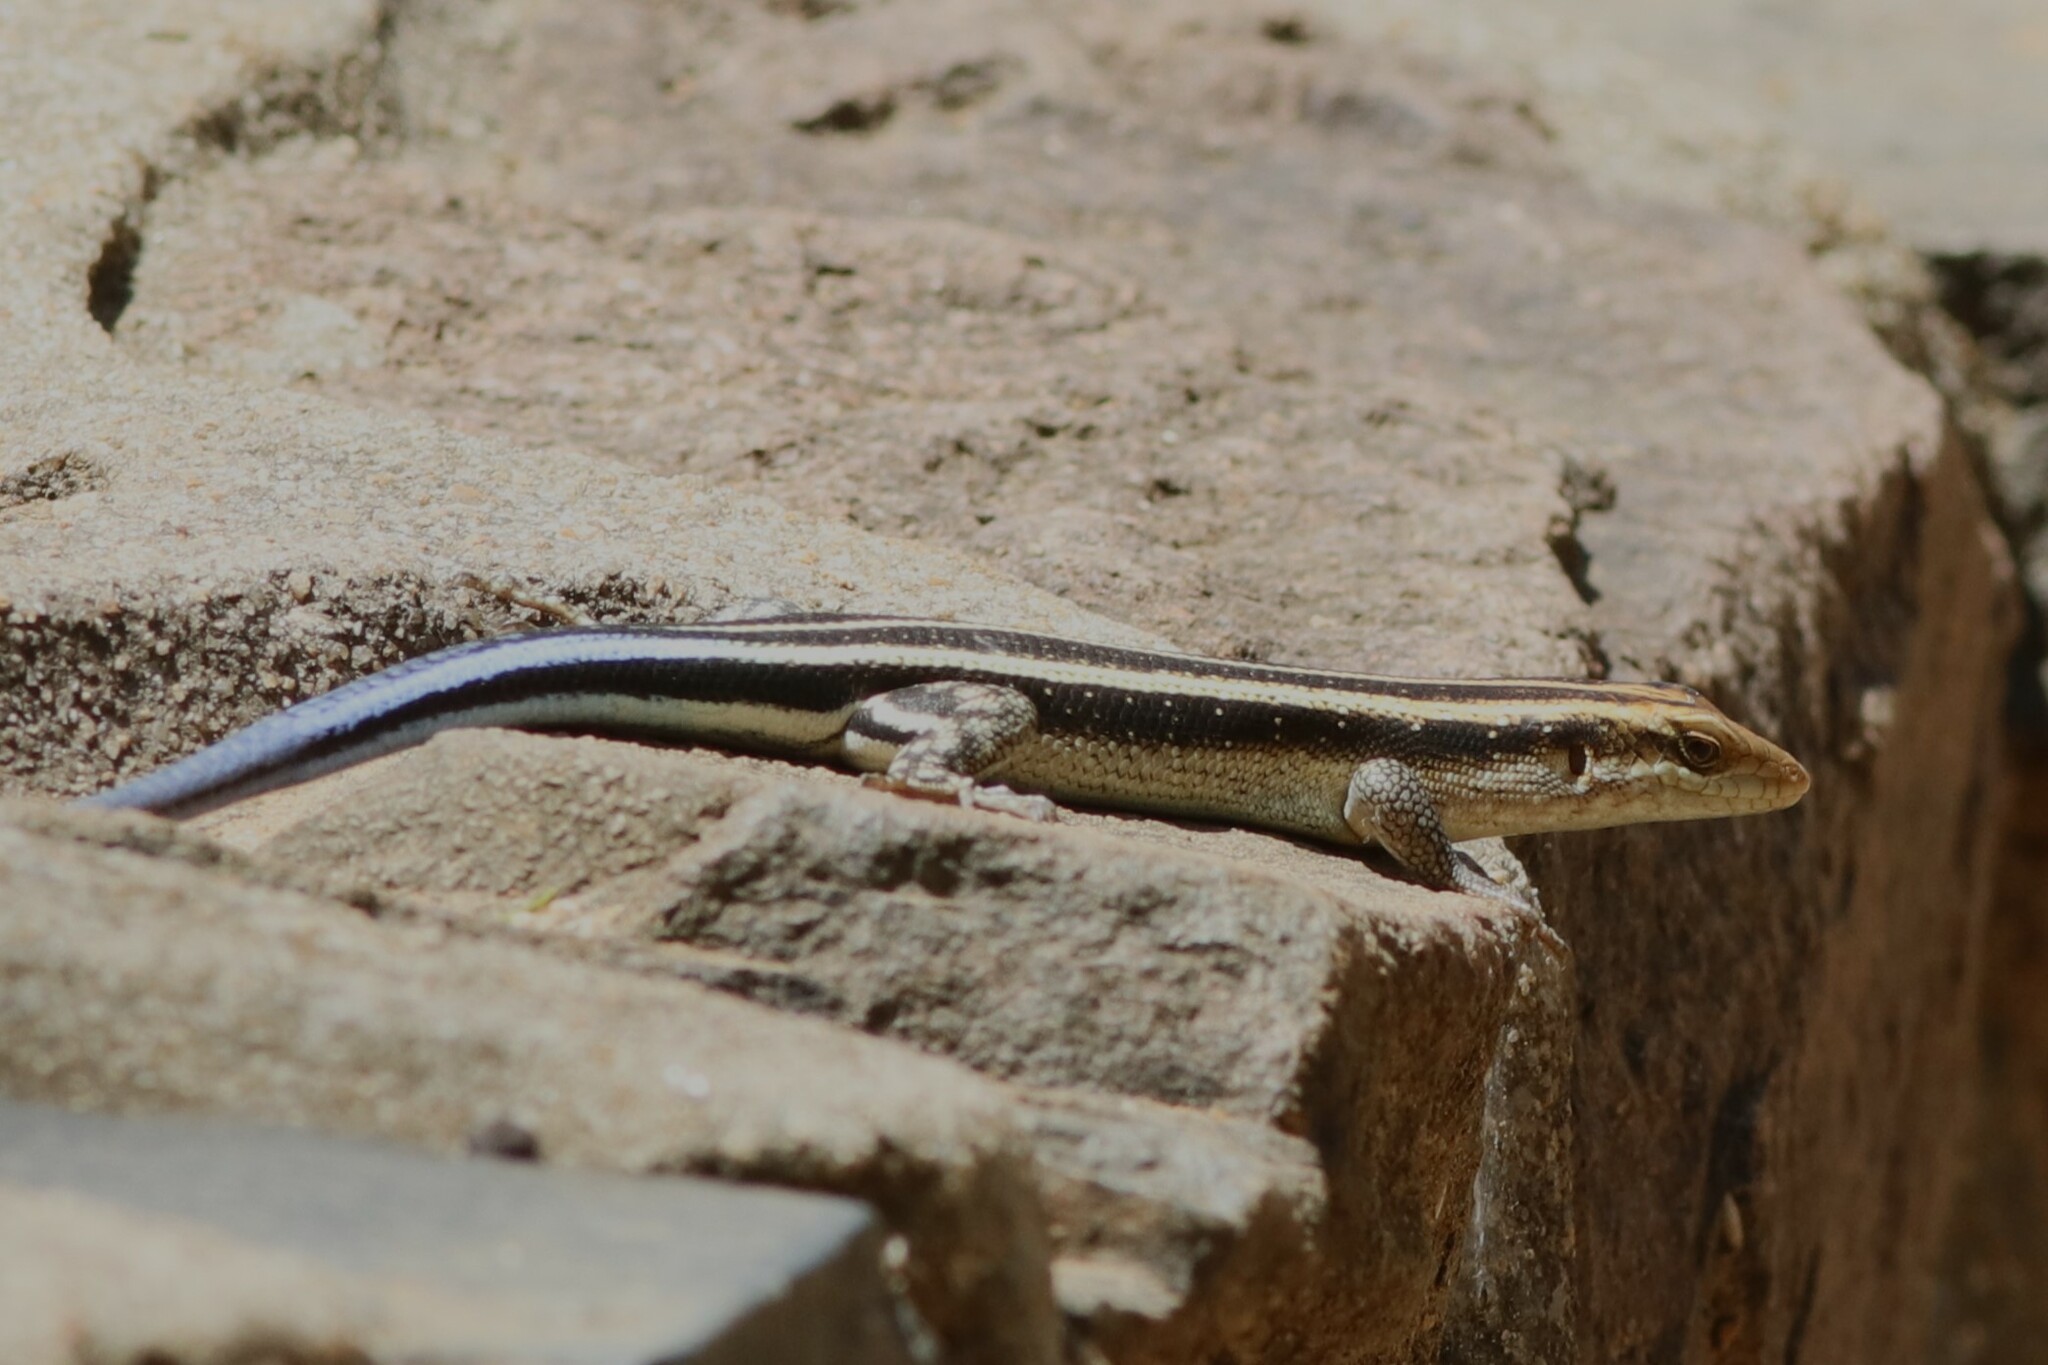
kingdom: Animalia
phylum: Chordata
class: Squamata
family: Scincidae
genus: Trachylepis
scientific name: Trachylepis margaritifera
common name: Rainbow skink
